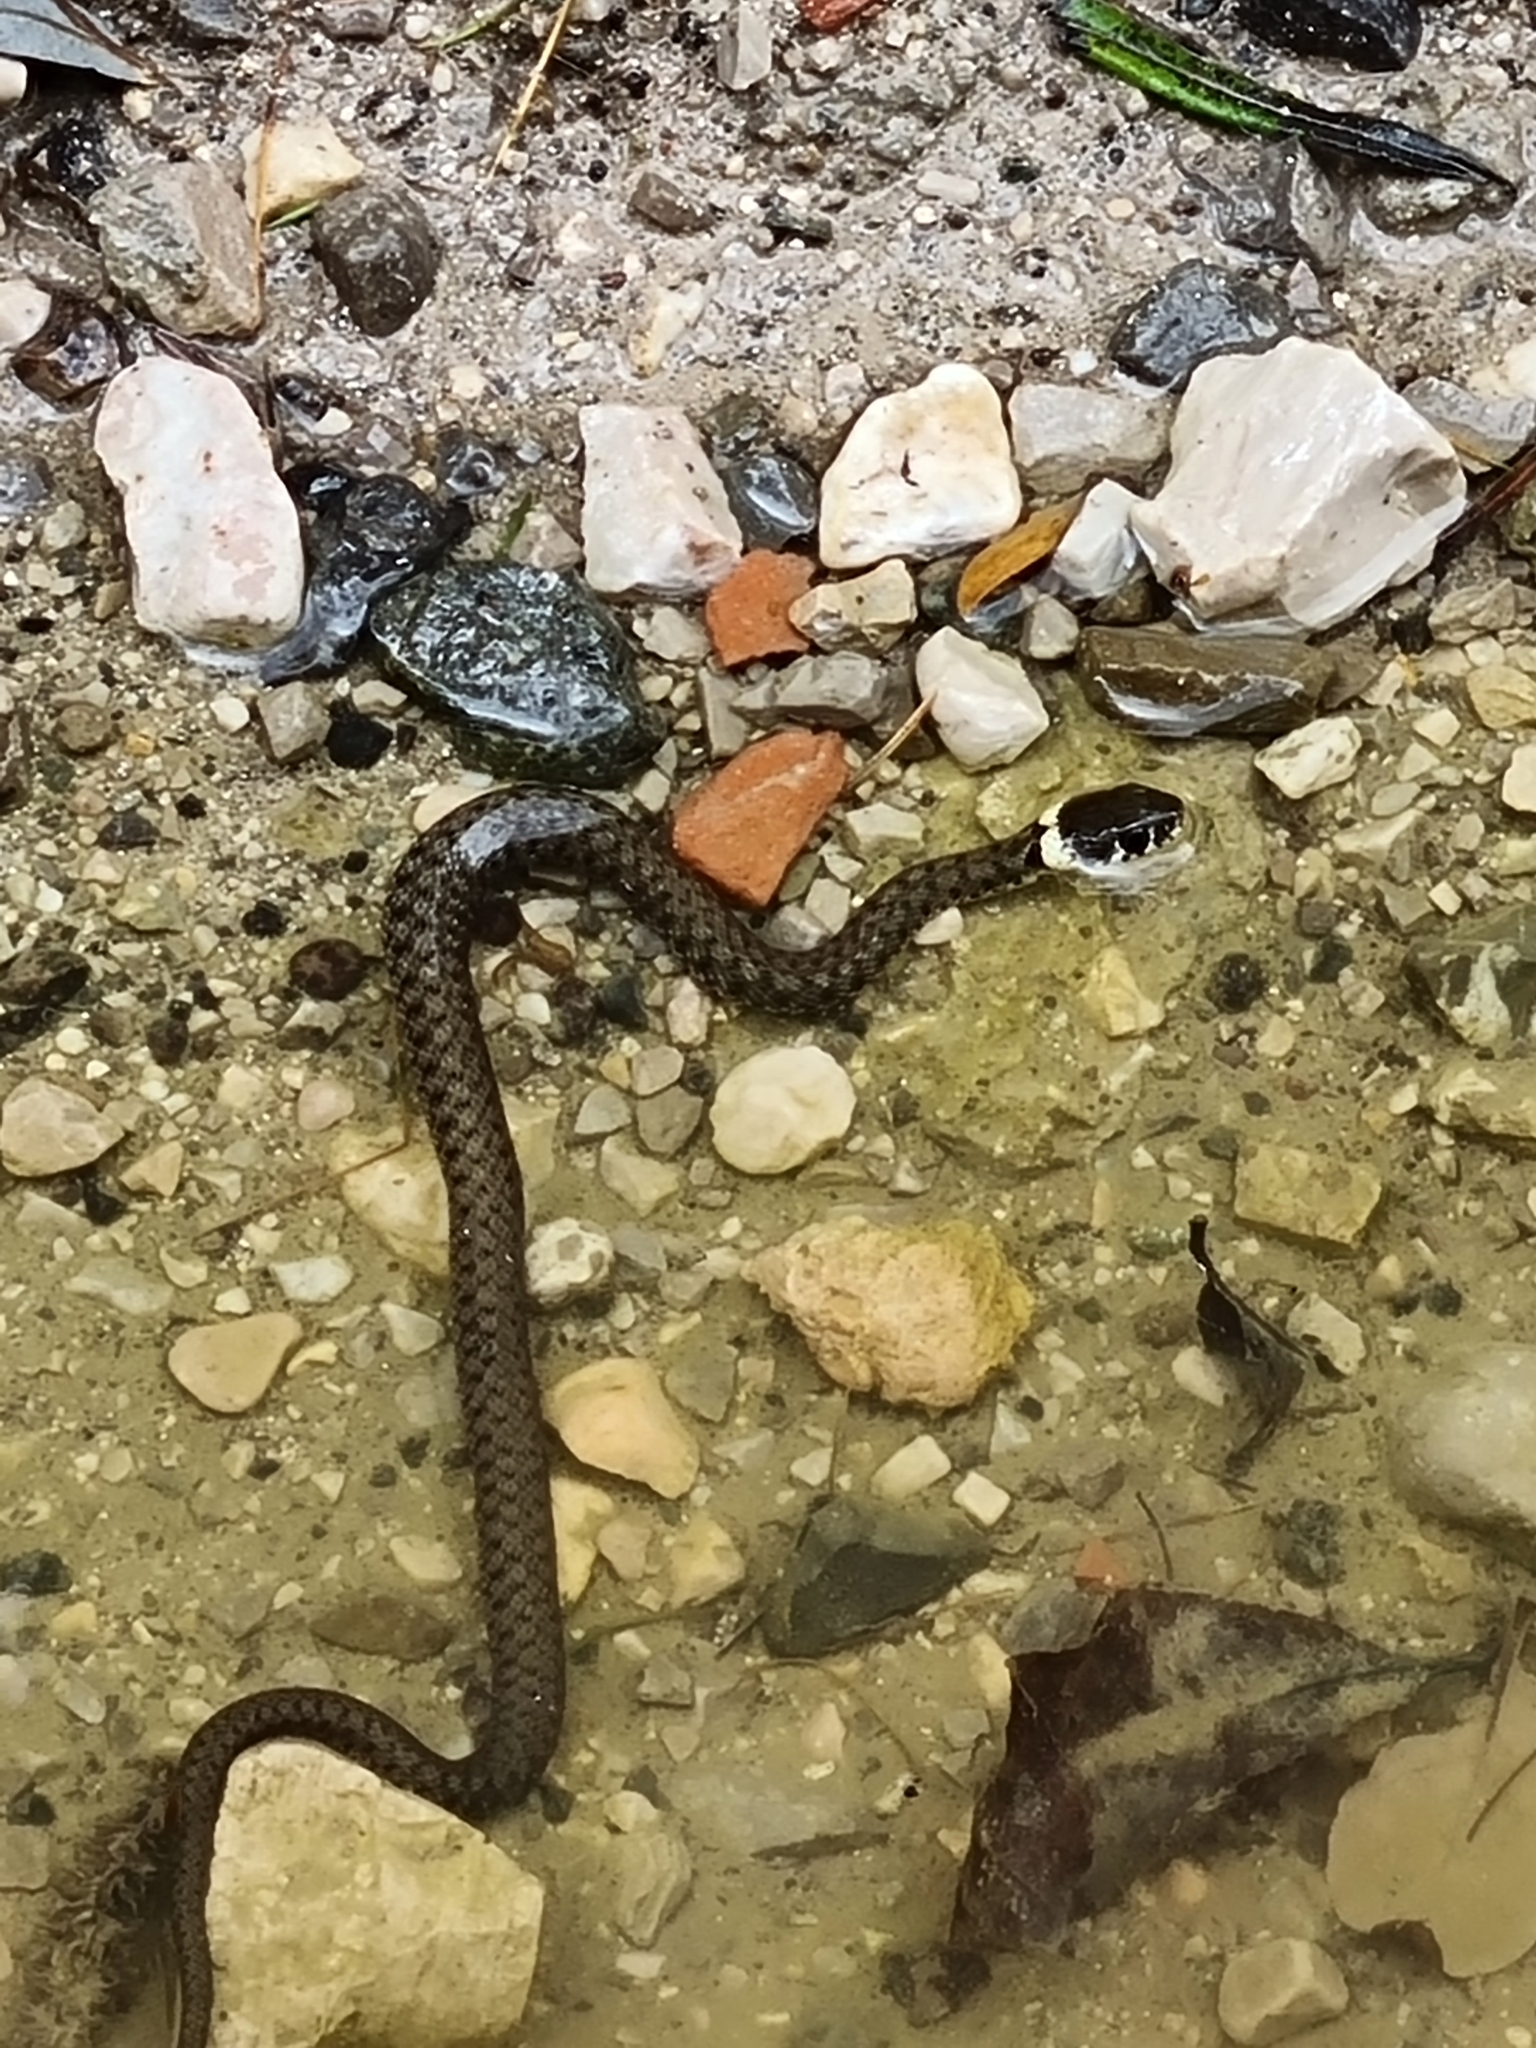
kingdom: Animalia
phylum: Chordata
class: Squamata
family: Colubridae
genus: Natrix
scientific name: Natrix natrix
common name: Grass snake
